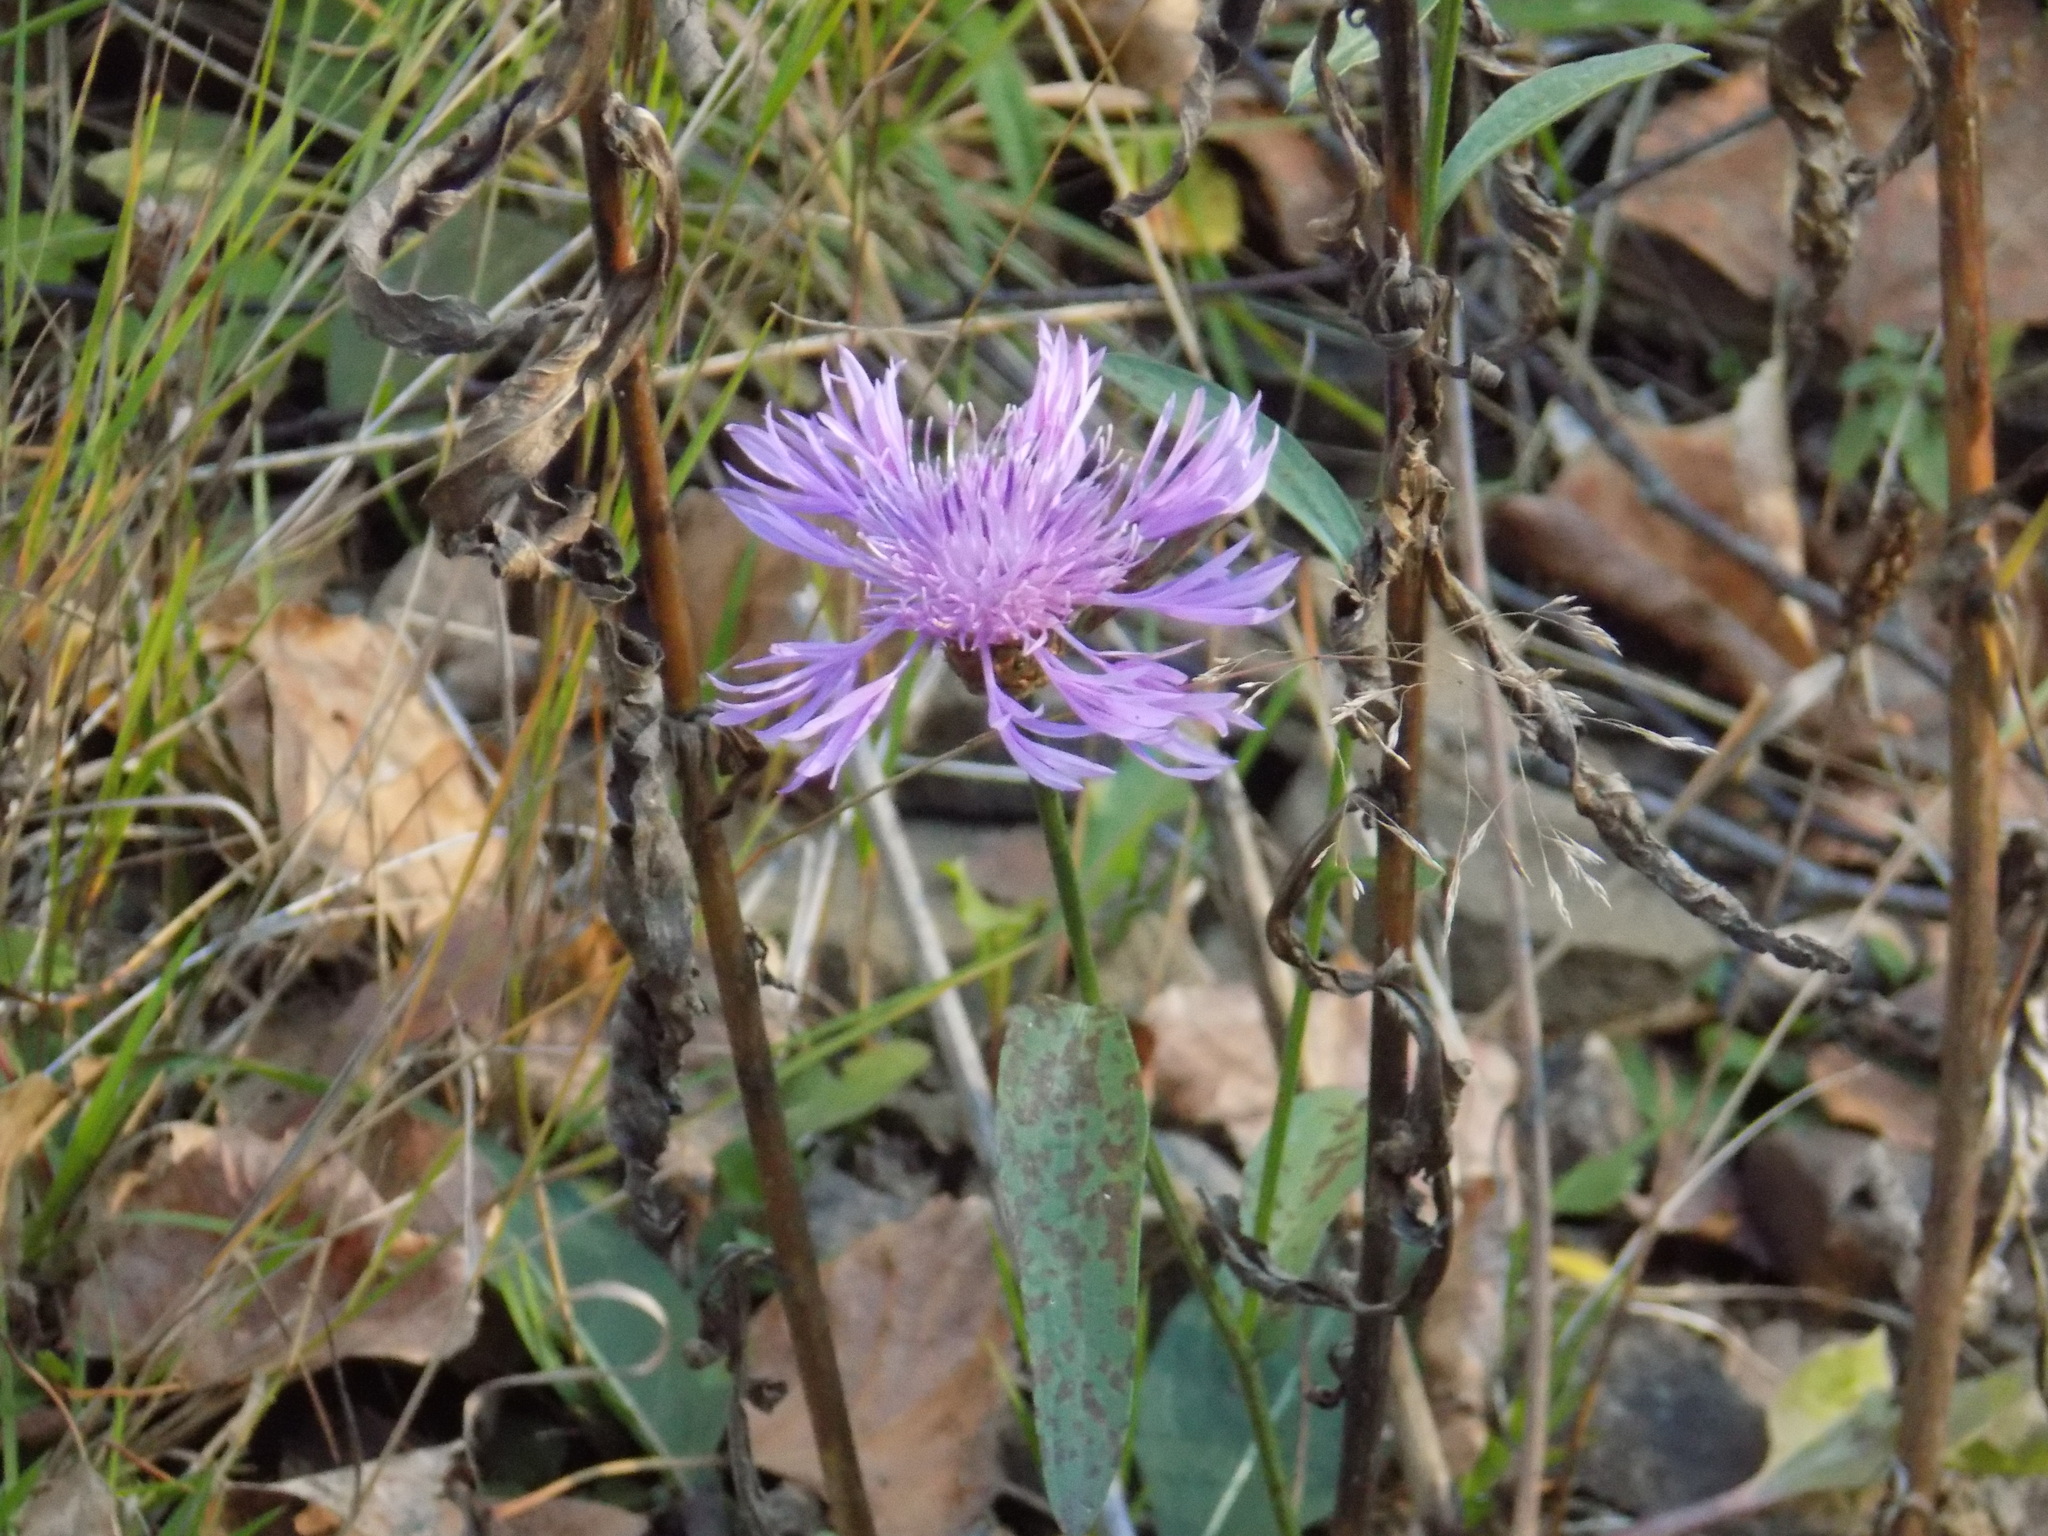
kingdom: Plantae
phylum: Tracheophyta
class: Magnoliopsida
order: Asterales
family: Asteraceae
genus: Centaurea
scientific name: Centaurea jacea
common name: Brown knapweed
